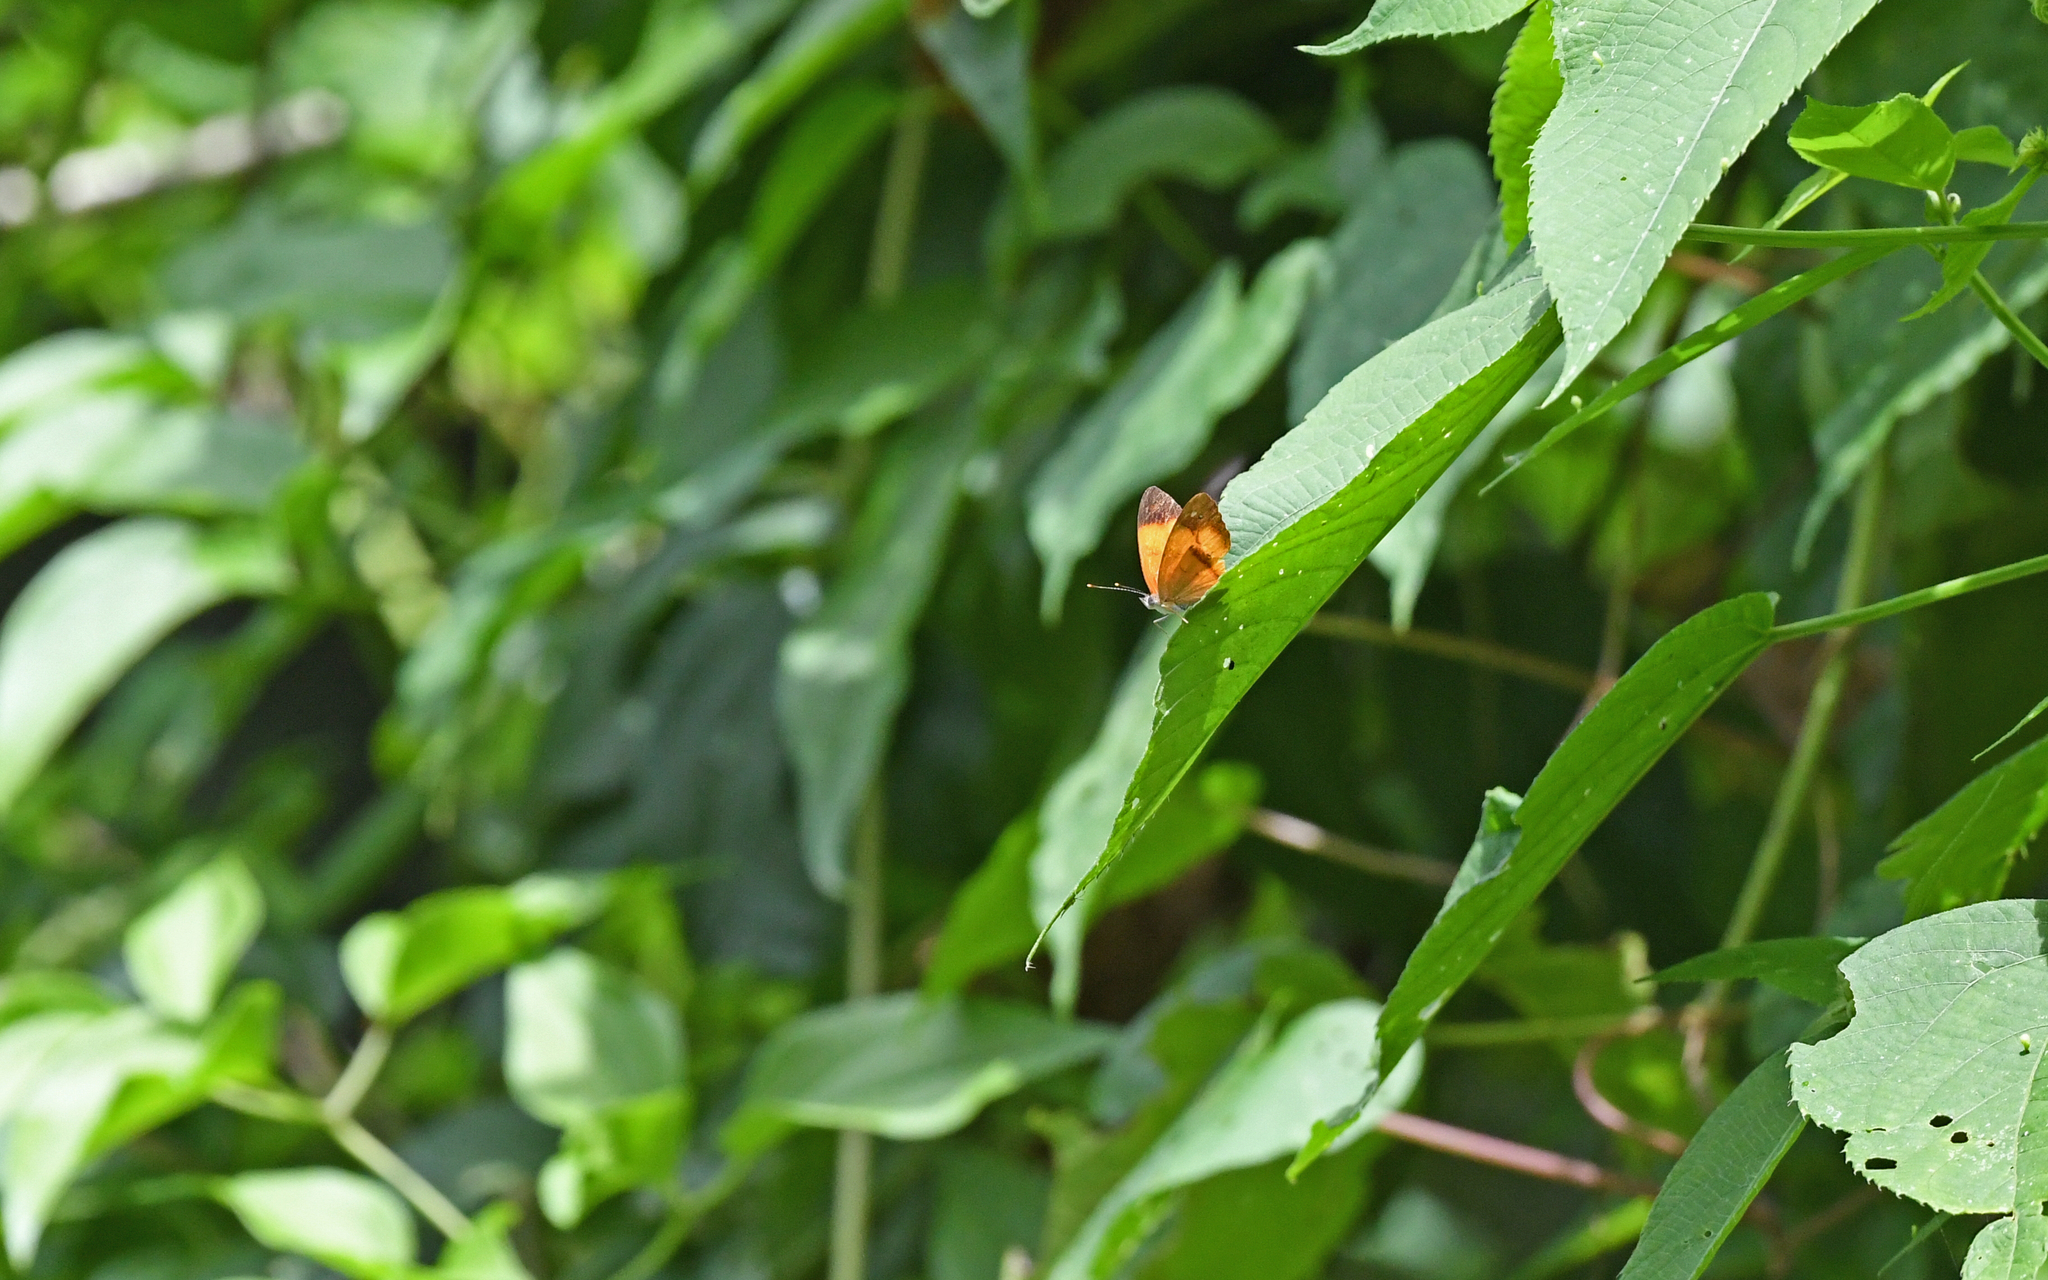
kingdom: Animalia
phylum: Arthropoda
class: Insecta
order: Lepidoptera
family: Nymphalidae
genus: Nica
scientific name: Nica flavilla
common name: Mandarin nica
